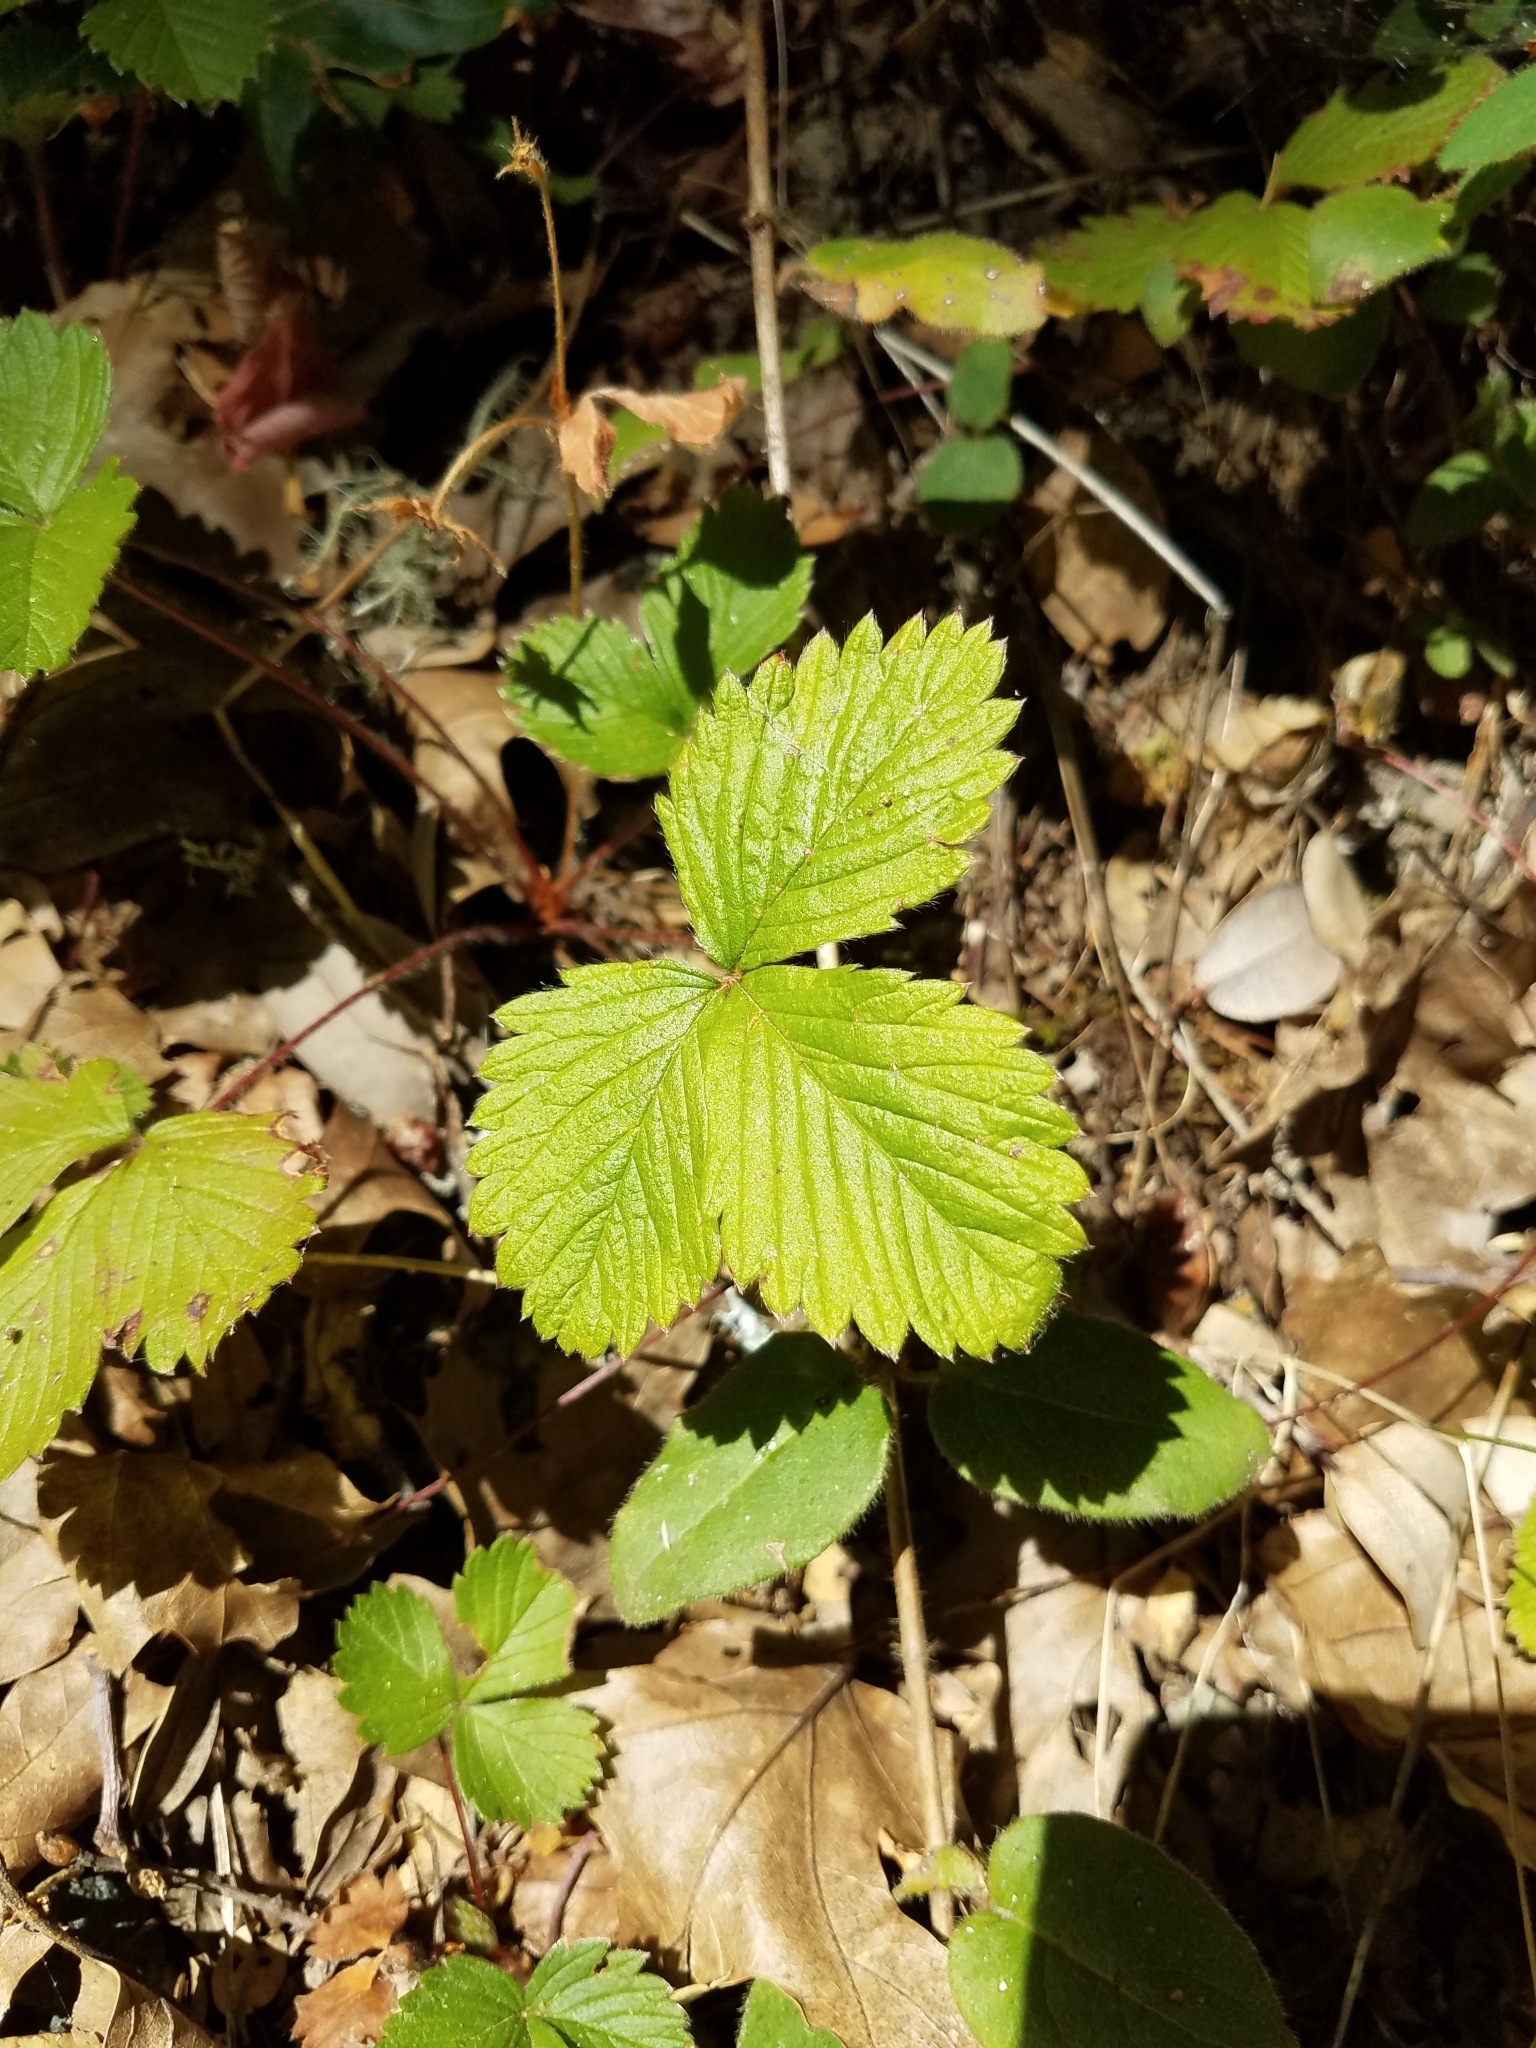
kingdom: Plantae
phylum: Tracheophyta
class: Magnoliopsida
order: Rosales
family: Rosaceae
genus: Fragaria
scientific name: Fragaria vesca
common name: Wild strawberry
